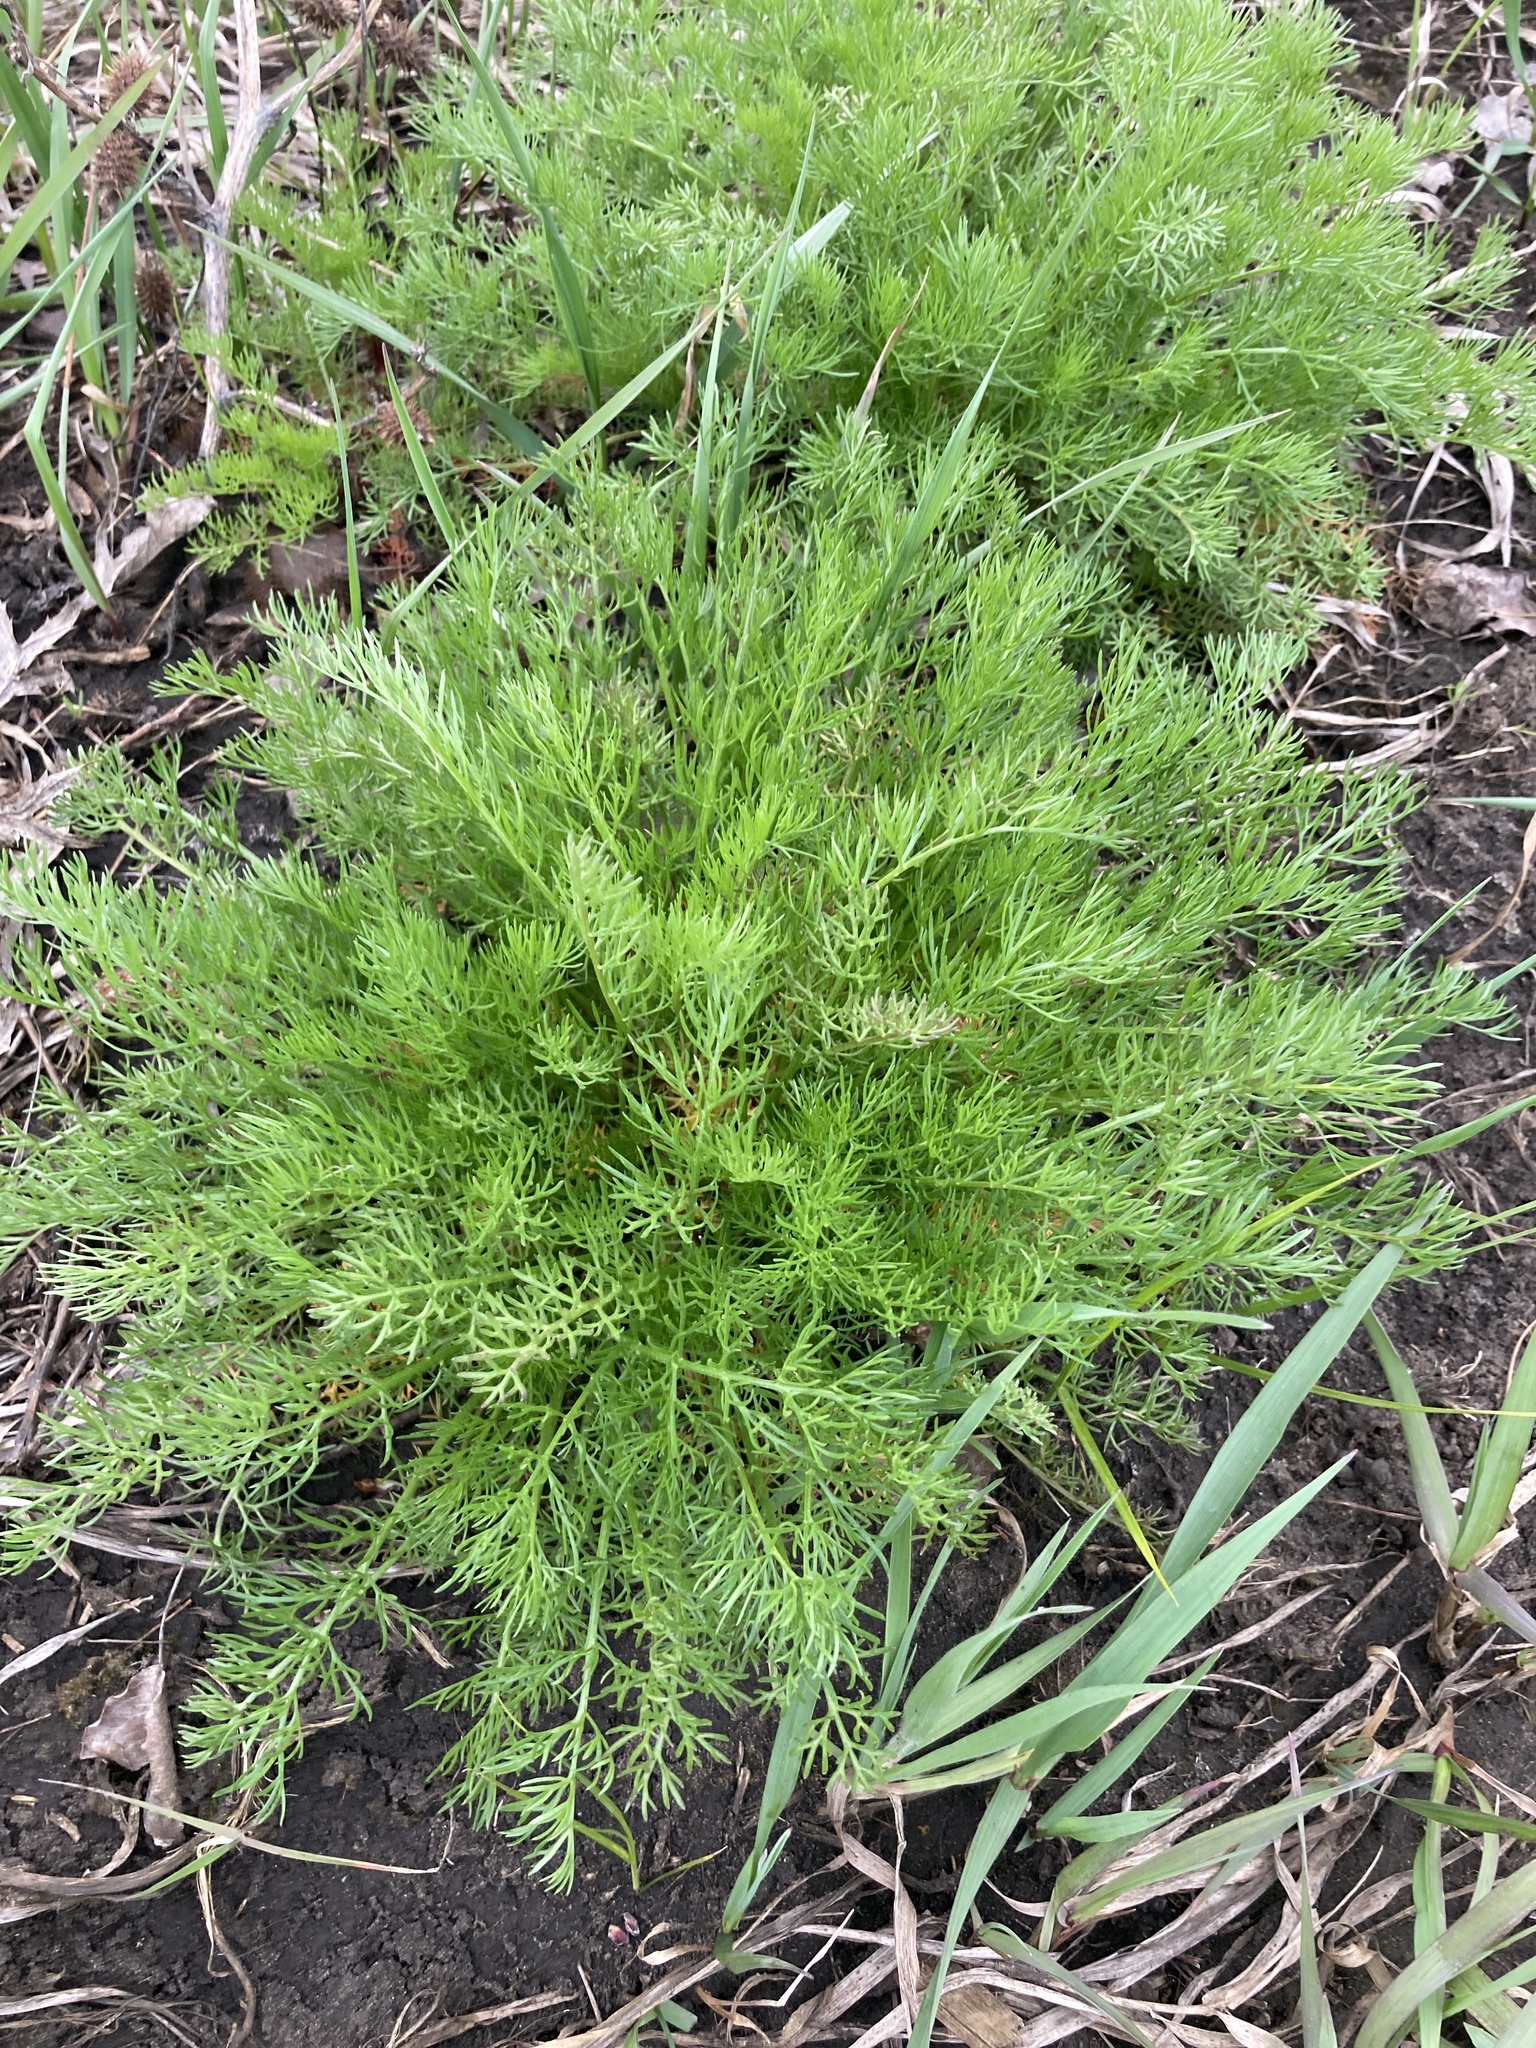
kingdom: Plantae
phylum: Tracheophyta
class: Magnoliopsida
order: Asterales
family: Asteraceae
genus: Tripleurospermum
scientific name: Tripleurospermum inodorum
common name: Scentless mayweed
